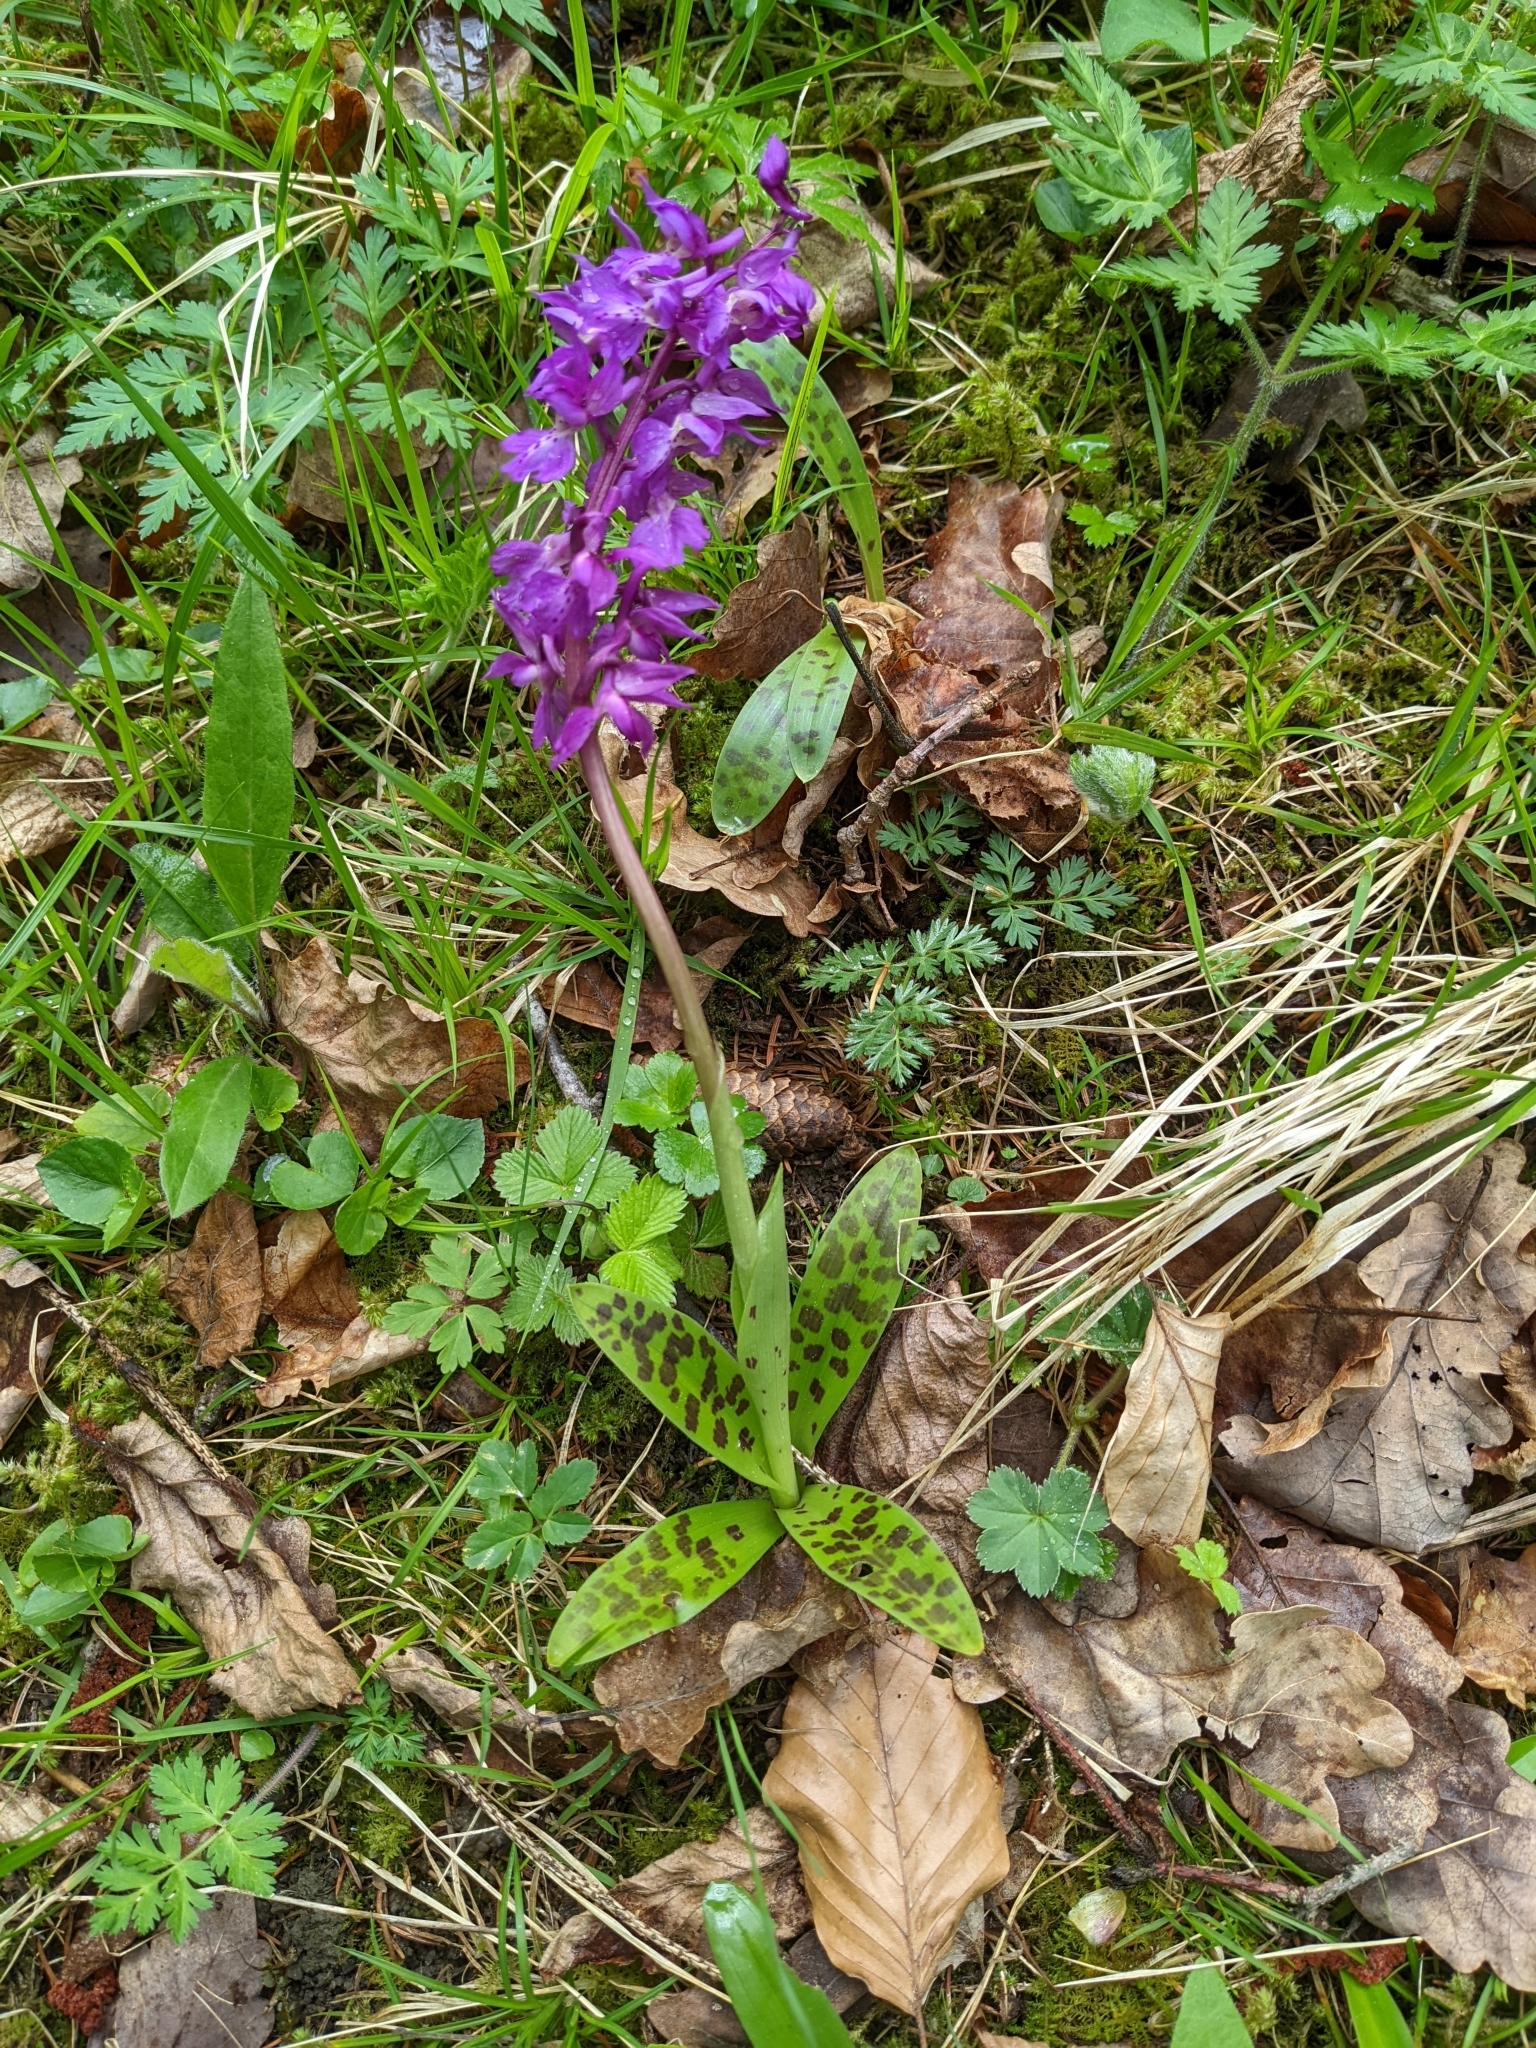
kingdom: Plantae
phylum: Tracheophyta
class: Liliopsida
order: Asparagales
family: Orchidaceae
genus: Orchis
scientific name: Orchis mascula
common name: Early-purple orchid
